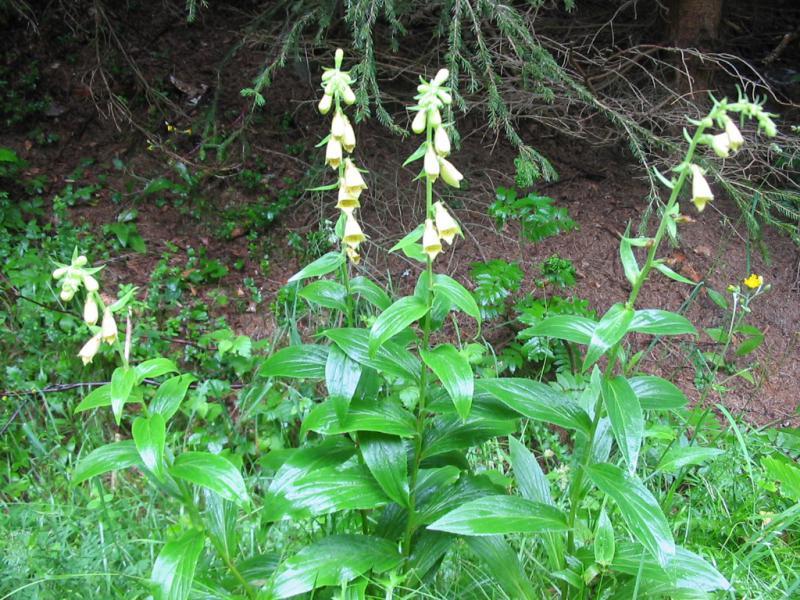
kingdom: Plantae
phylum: Tracheophyta
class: Magnoliopsida
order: Lamiales
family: Plantaginaceae
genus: Digitalis
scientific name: Digitalis grandiflora
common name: Yellow foxglove
